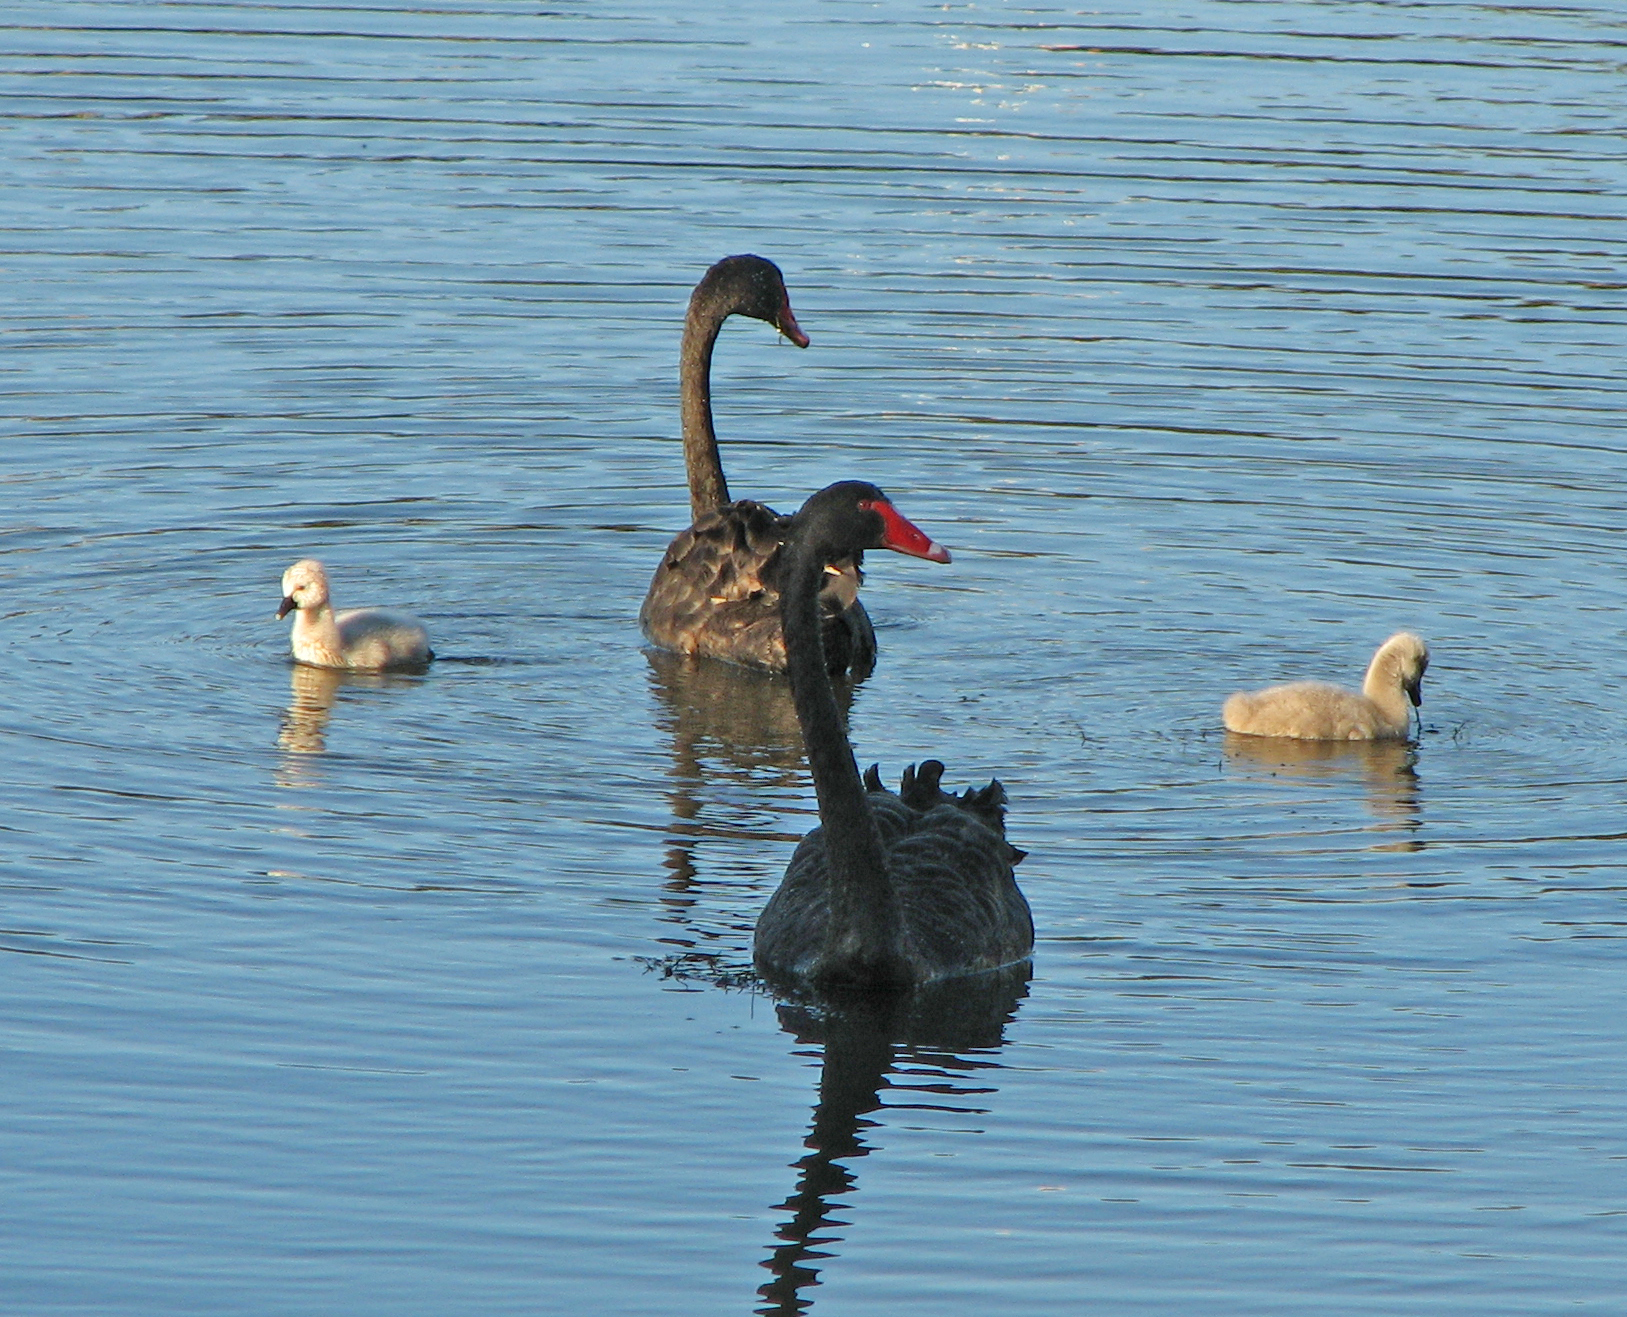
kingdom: Animalia
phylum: Chordata
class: Aves
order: Anseriformes
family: Anatidae
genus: Cygnus
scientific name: Cygnus atratus
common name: Black swan
